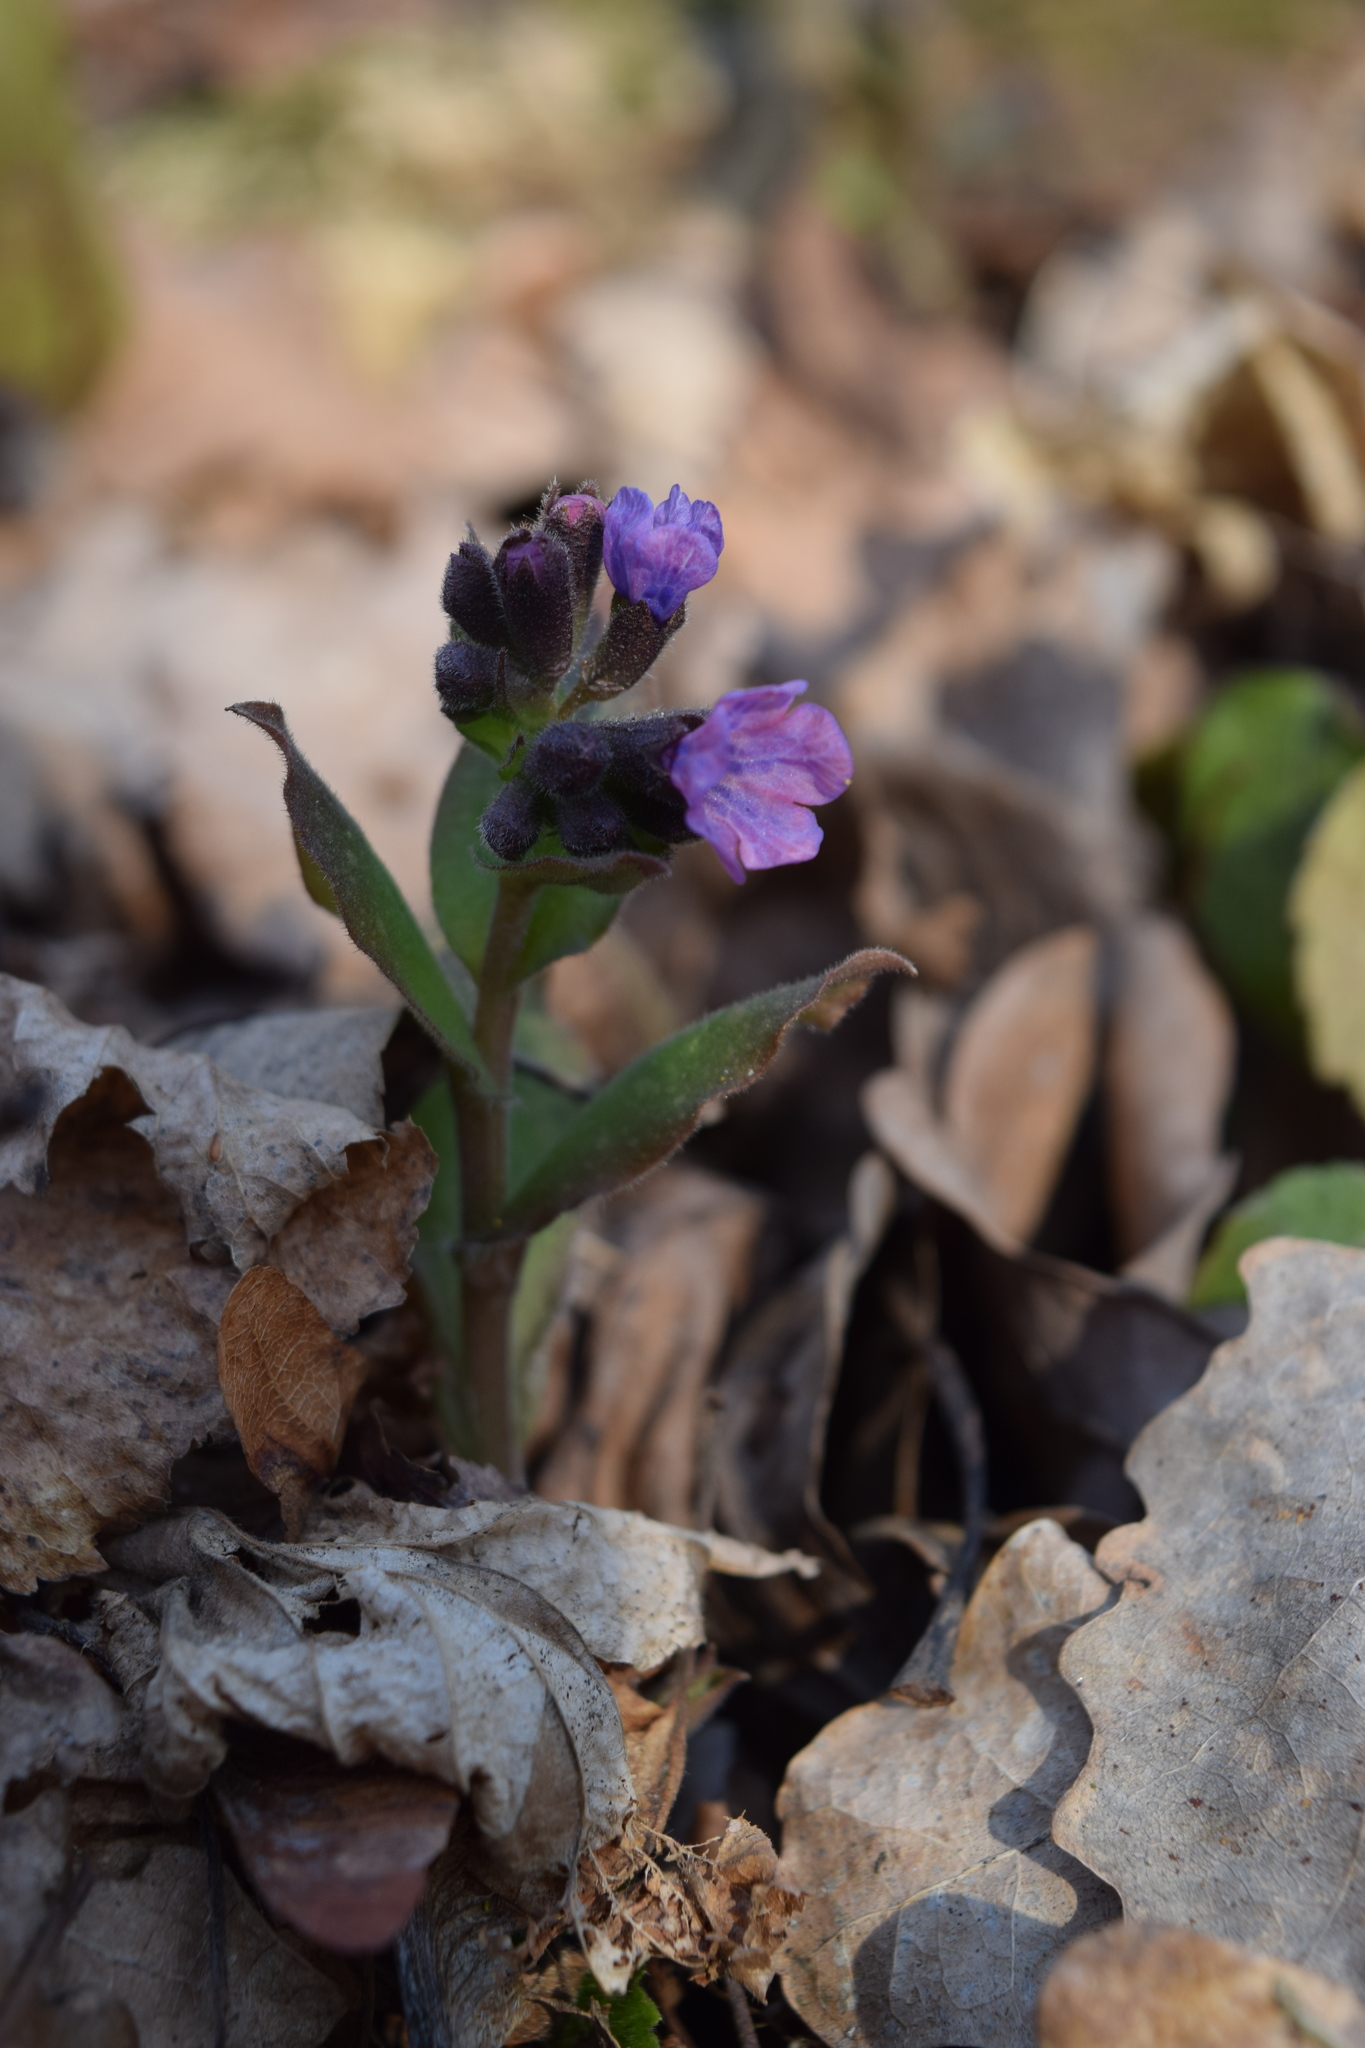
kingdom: Plantae
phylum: Tracheophyta
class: Magnoliopsida
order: Boraginales
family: Boraginaceae
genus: Pulmonaria
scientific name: Pulmonaria obscura
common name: Suffolk lungwort
